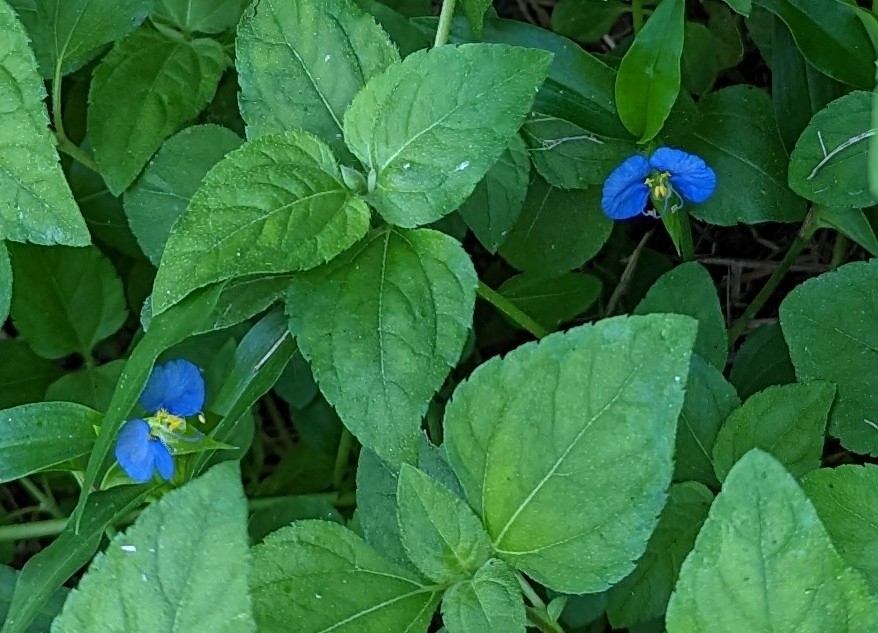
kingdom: Plantae
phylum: Tracheophyta
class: Liliopsida
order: Commelinales
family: Commelinaceae
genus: Commelina
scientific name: Commelina erecta
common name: Blousel blommetjie
